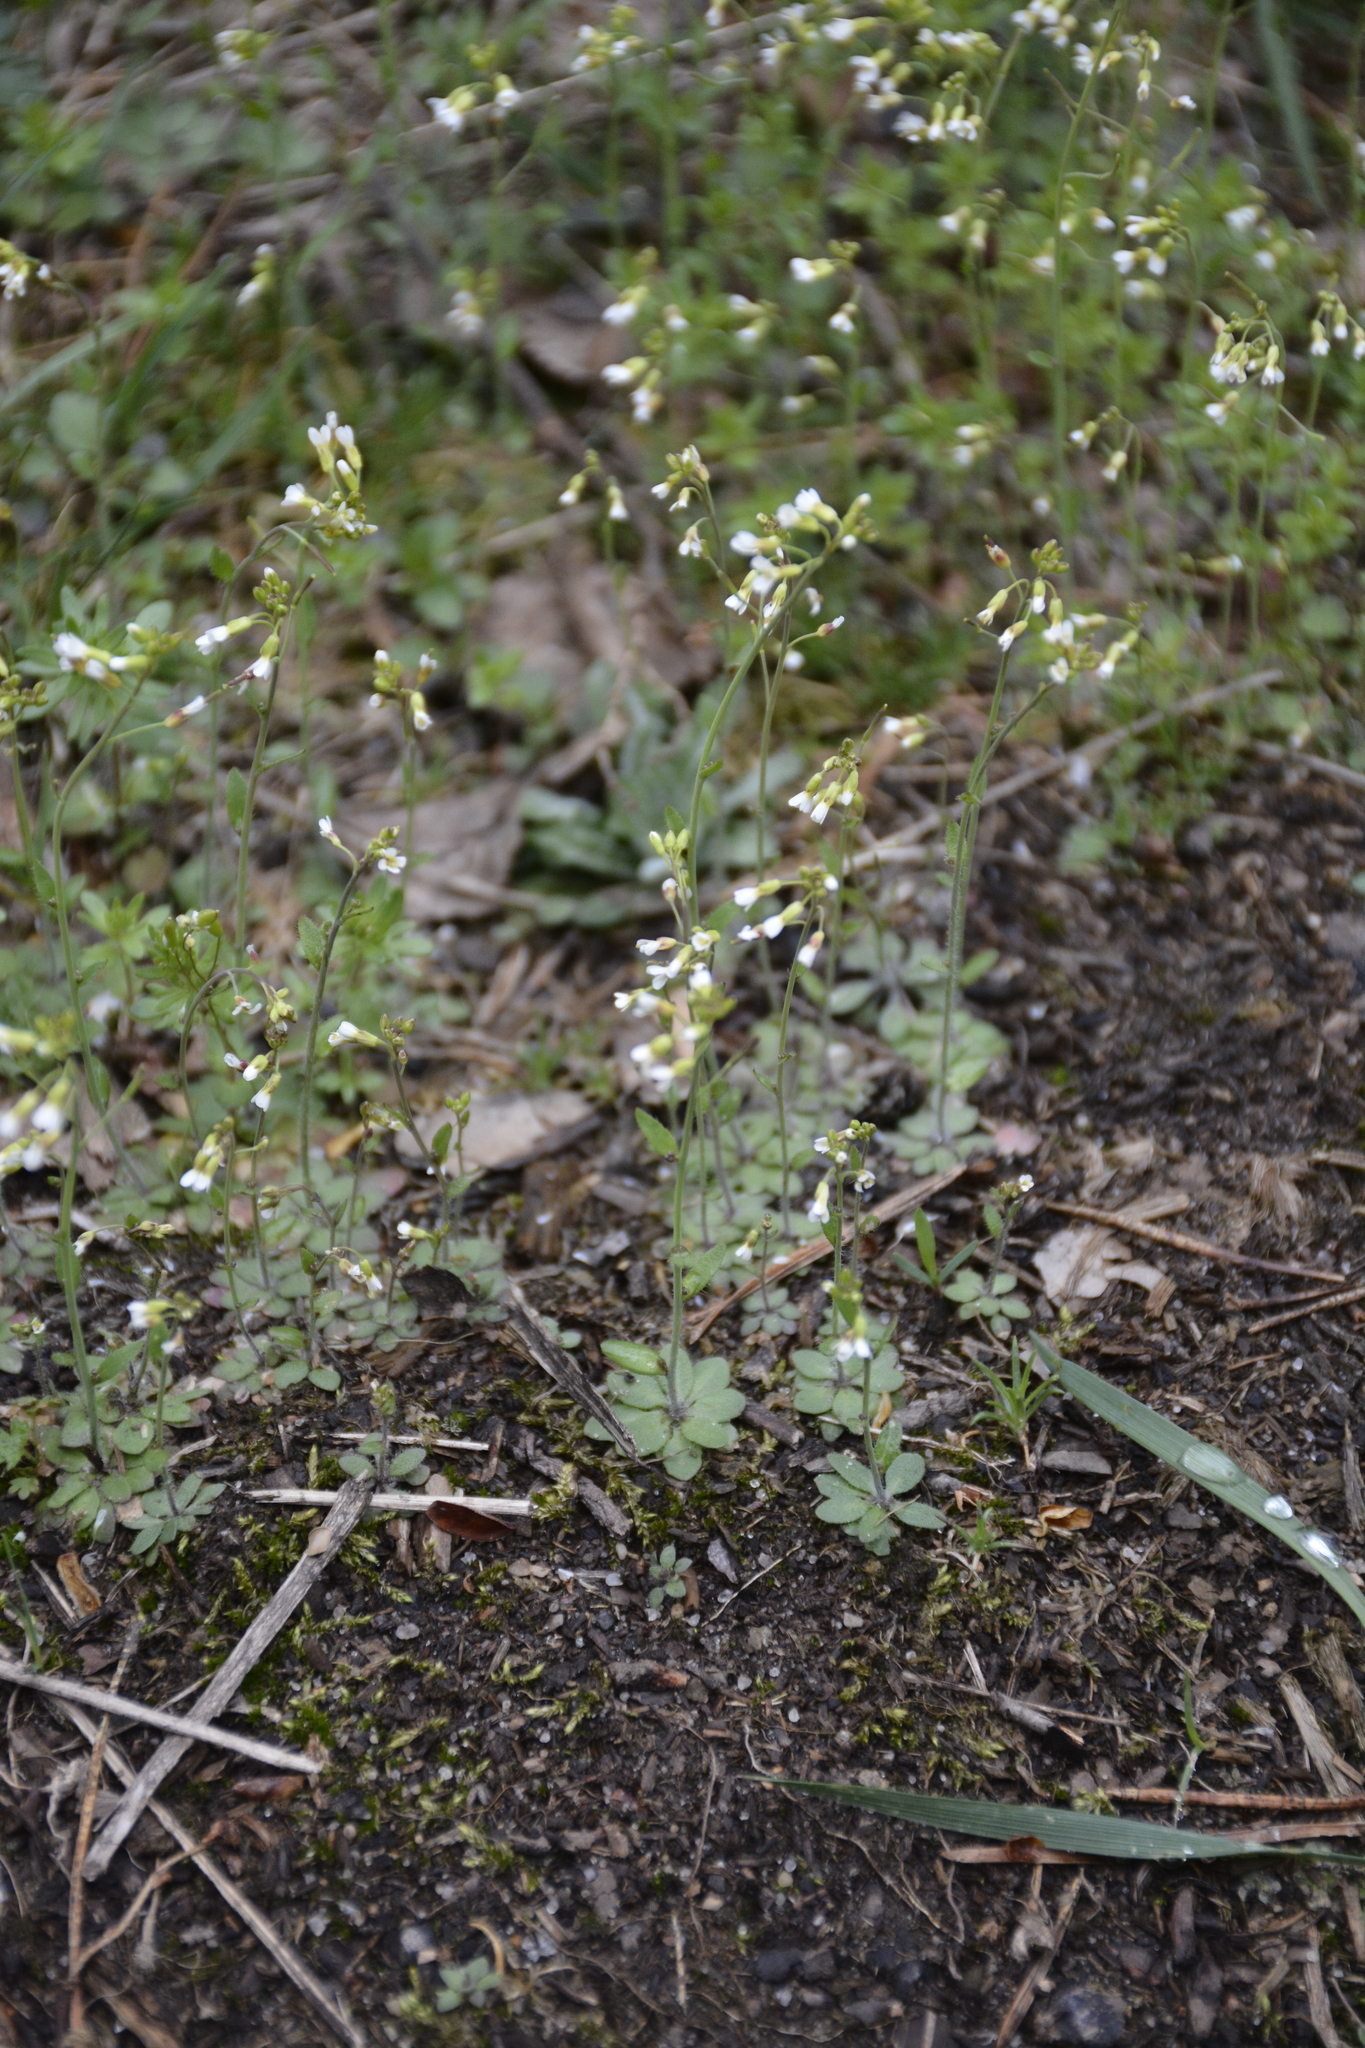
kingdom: Plantae
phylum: Tracheophyta
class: Magnoliopsida
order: Brassicales
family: Brassicaceae
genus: Arabidopsis
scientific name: Arabidopsis thaliana
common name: Thale cress
